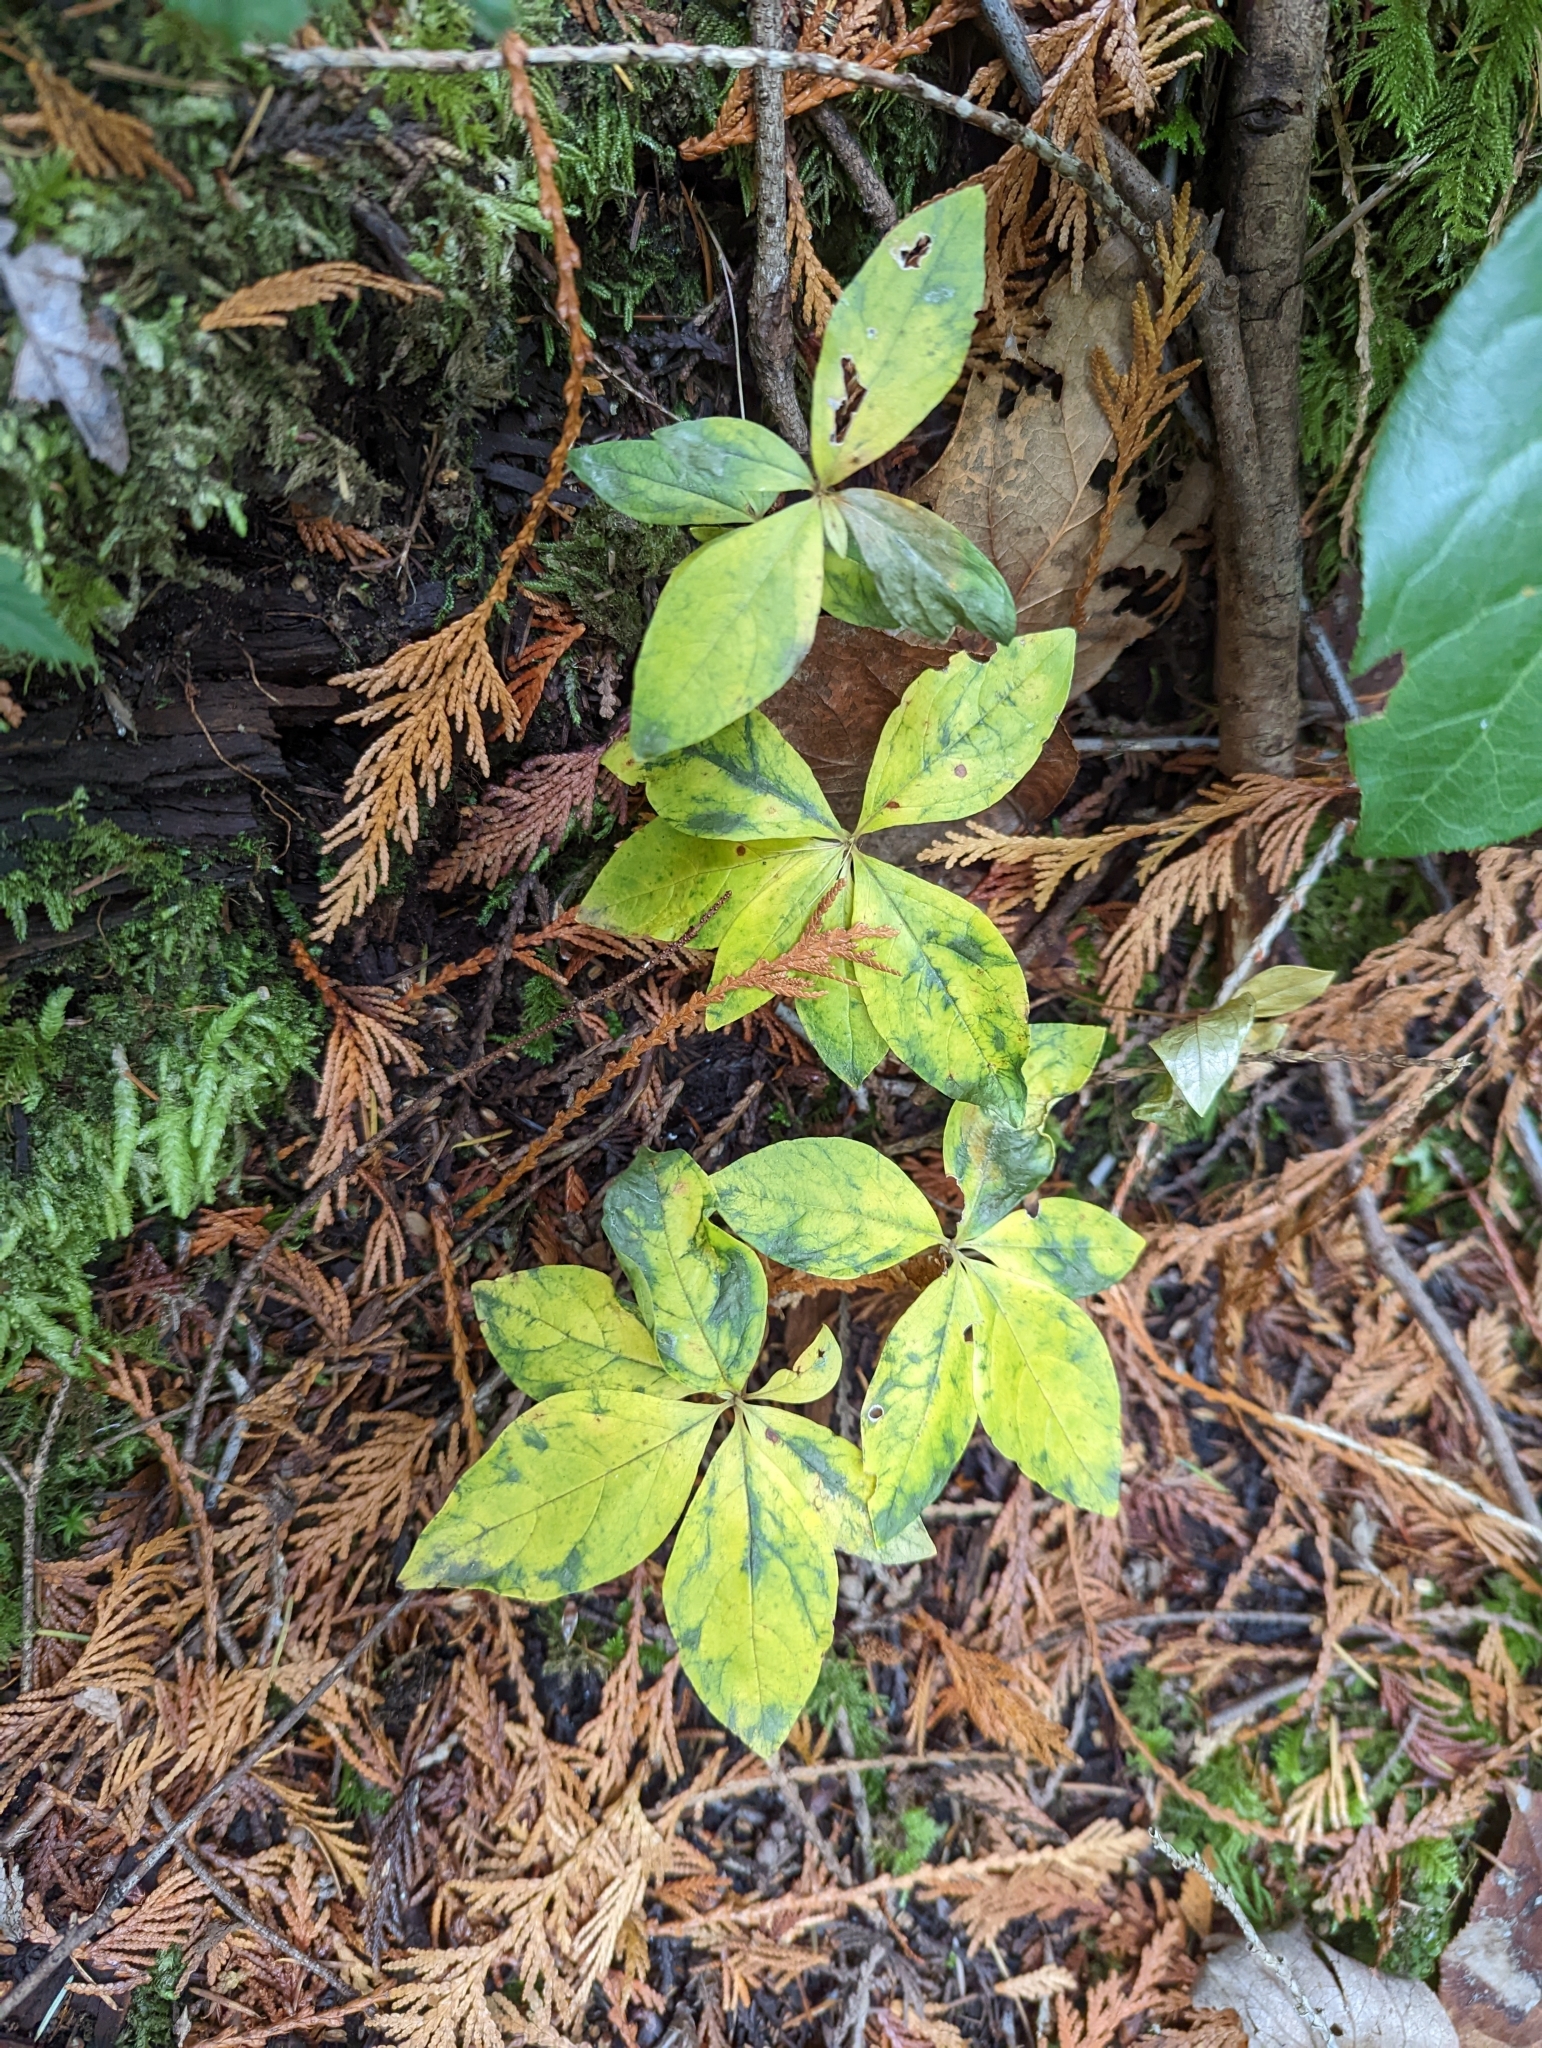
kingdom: Plantae
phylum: Tracheophyta
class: Magnoliopsida
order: Ericales
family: Primulaceae
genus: Lysimachia
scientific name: Lysimachia latifolia
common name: Pacific starflower
